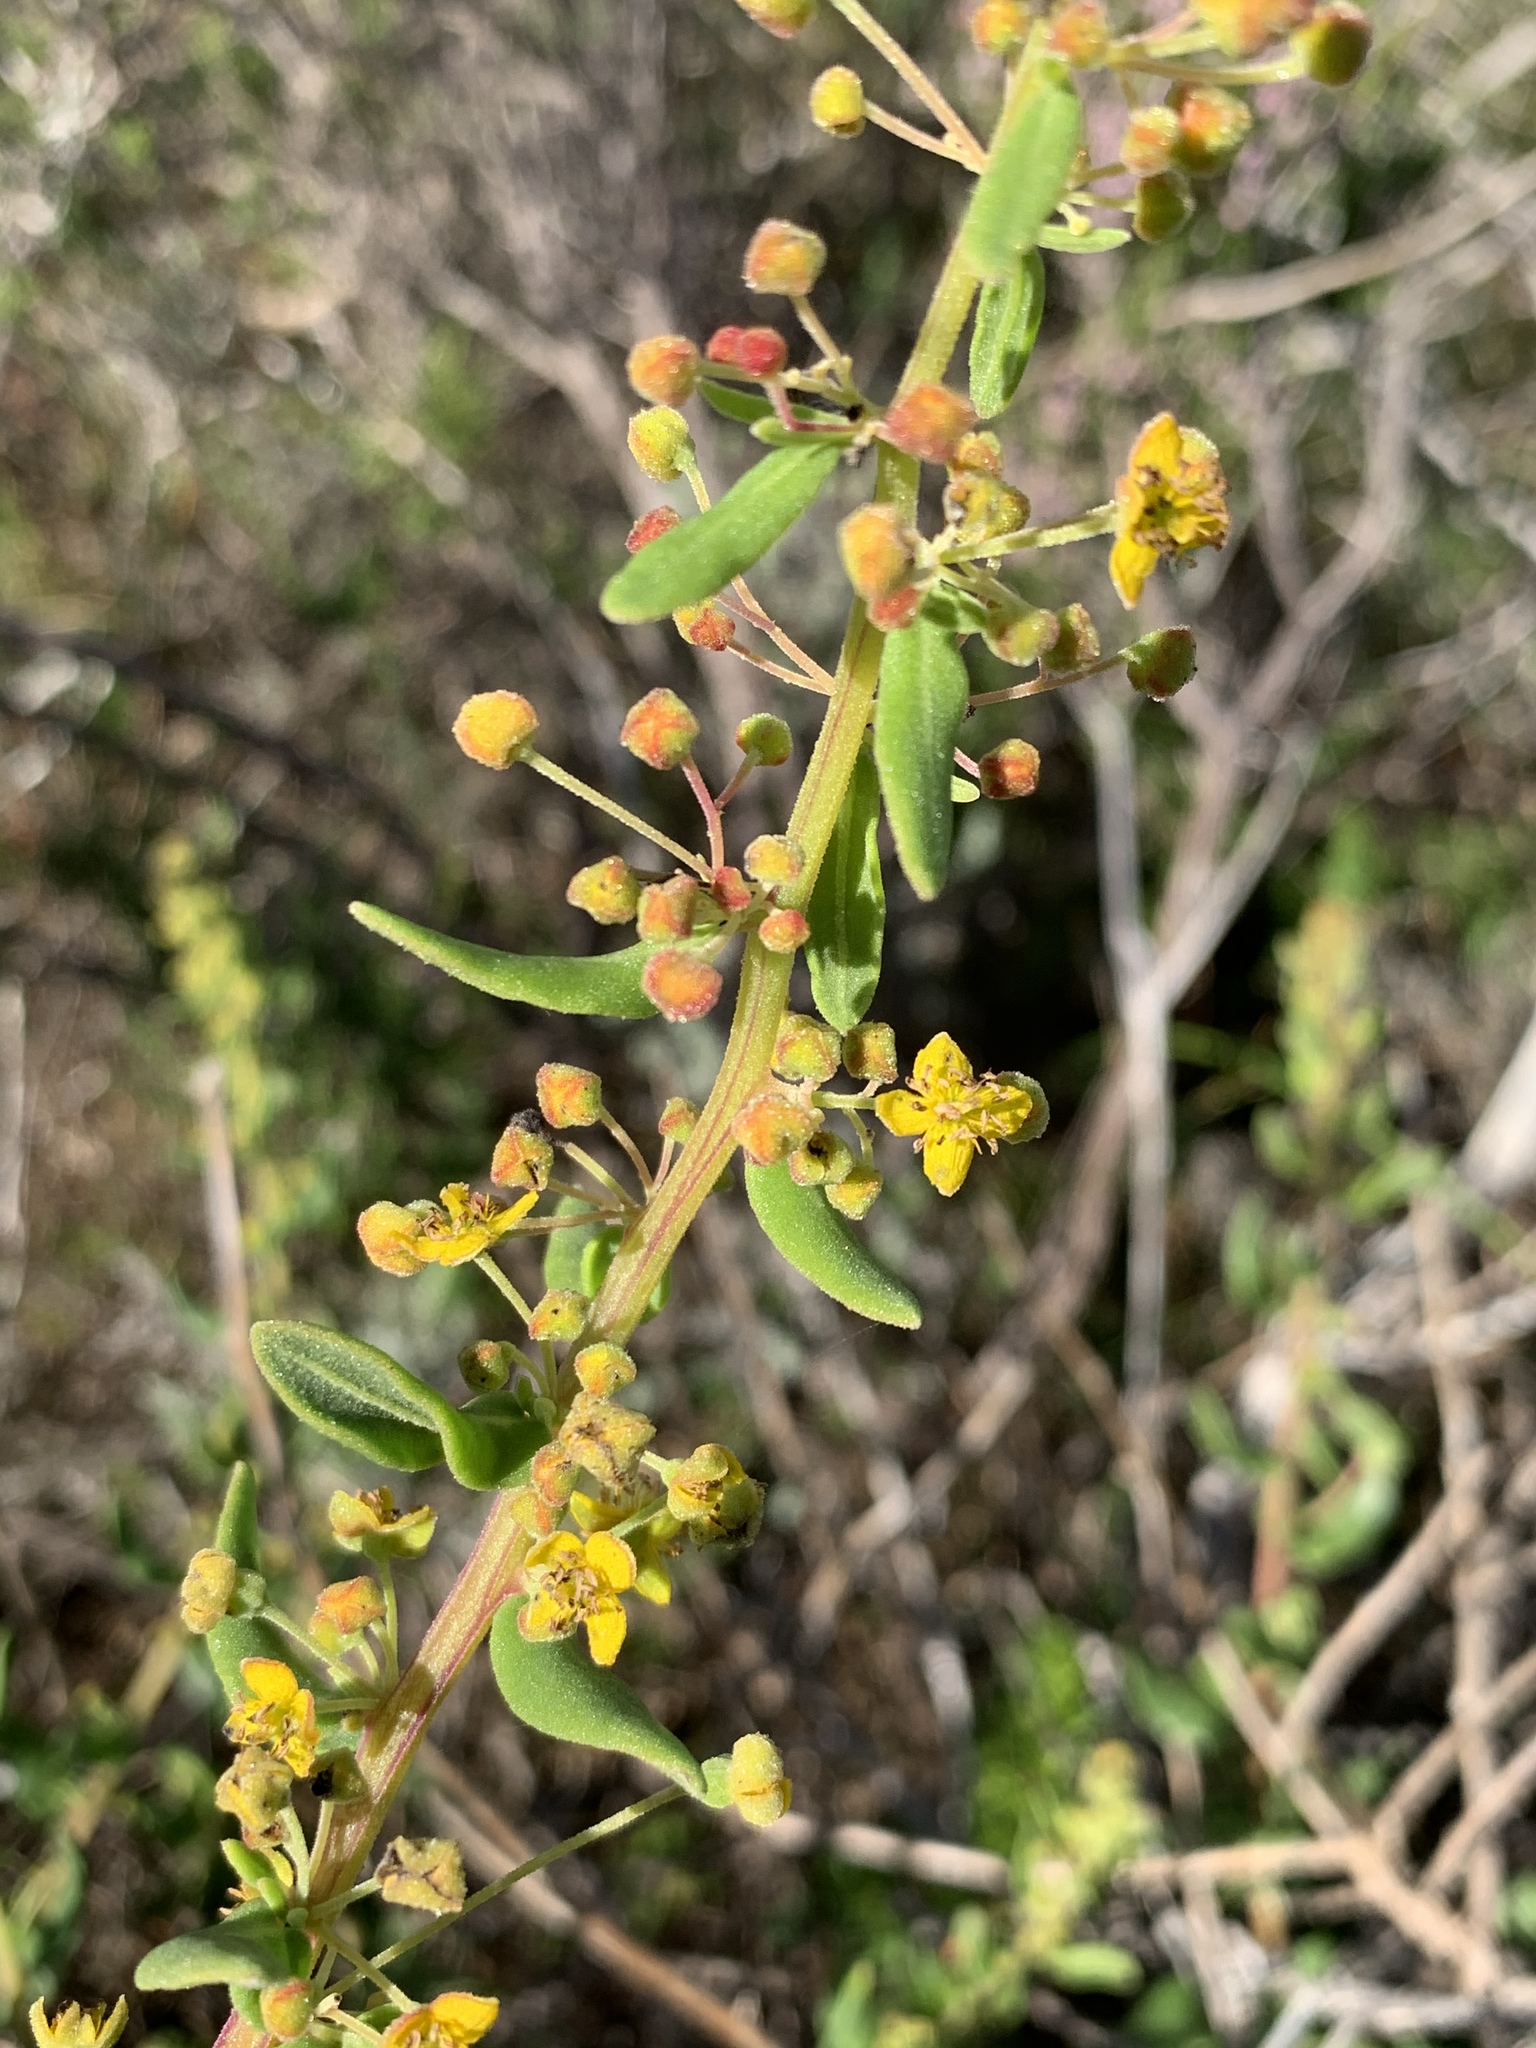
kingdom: Plantae
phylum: Tracheophyta
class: Magnoliopsida
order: Caryophyllales
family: Aizoaceae
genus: Tetragonia
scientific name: Tetragonia fruticosa
